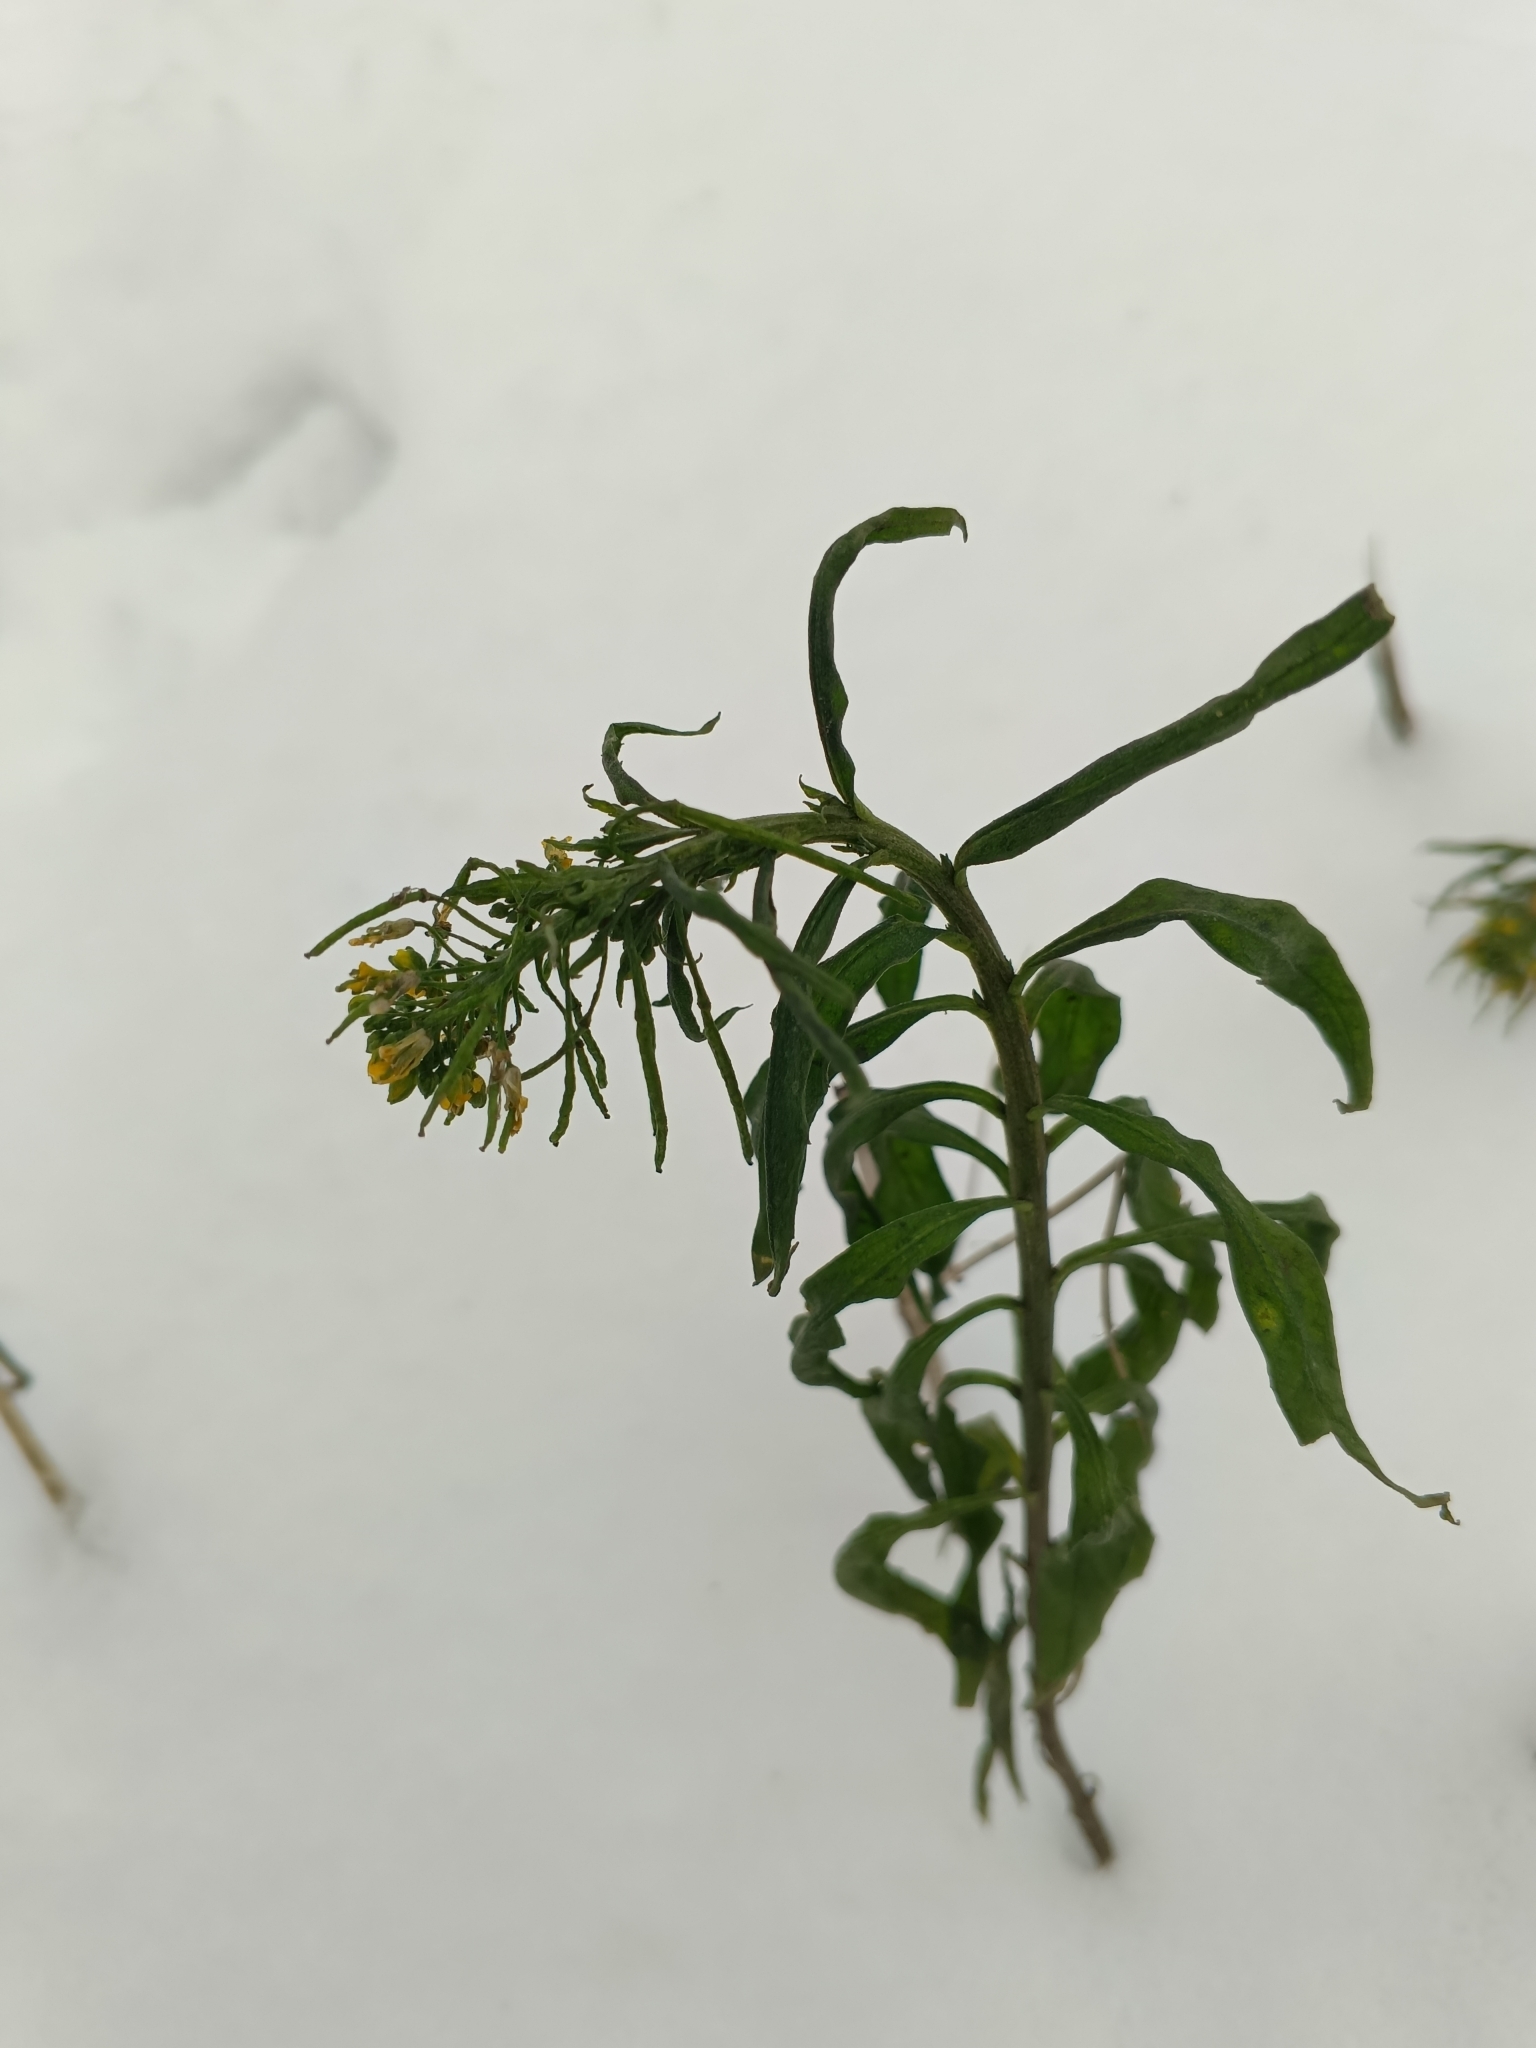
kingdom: Plantae
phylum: Tracheophyta
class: Magnoliopsida
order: Brassicales
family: Brassicaceae
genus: Erysimum
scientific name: Erysimum cheiranthoides
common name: Treacle mustard
